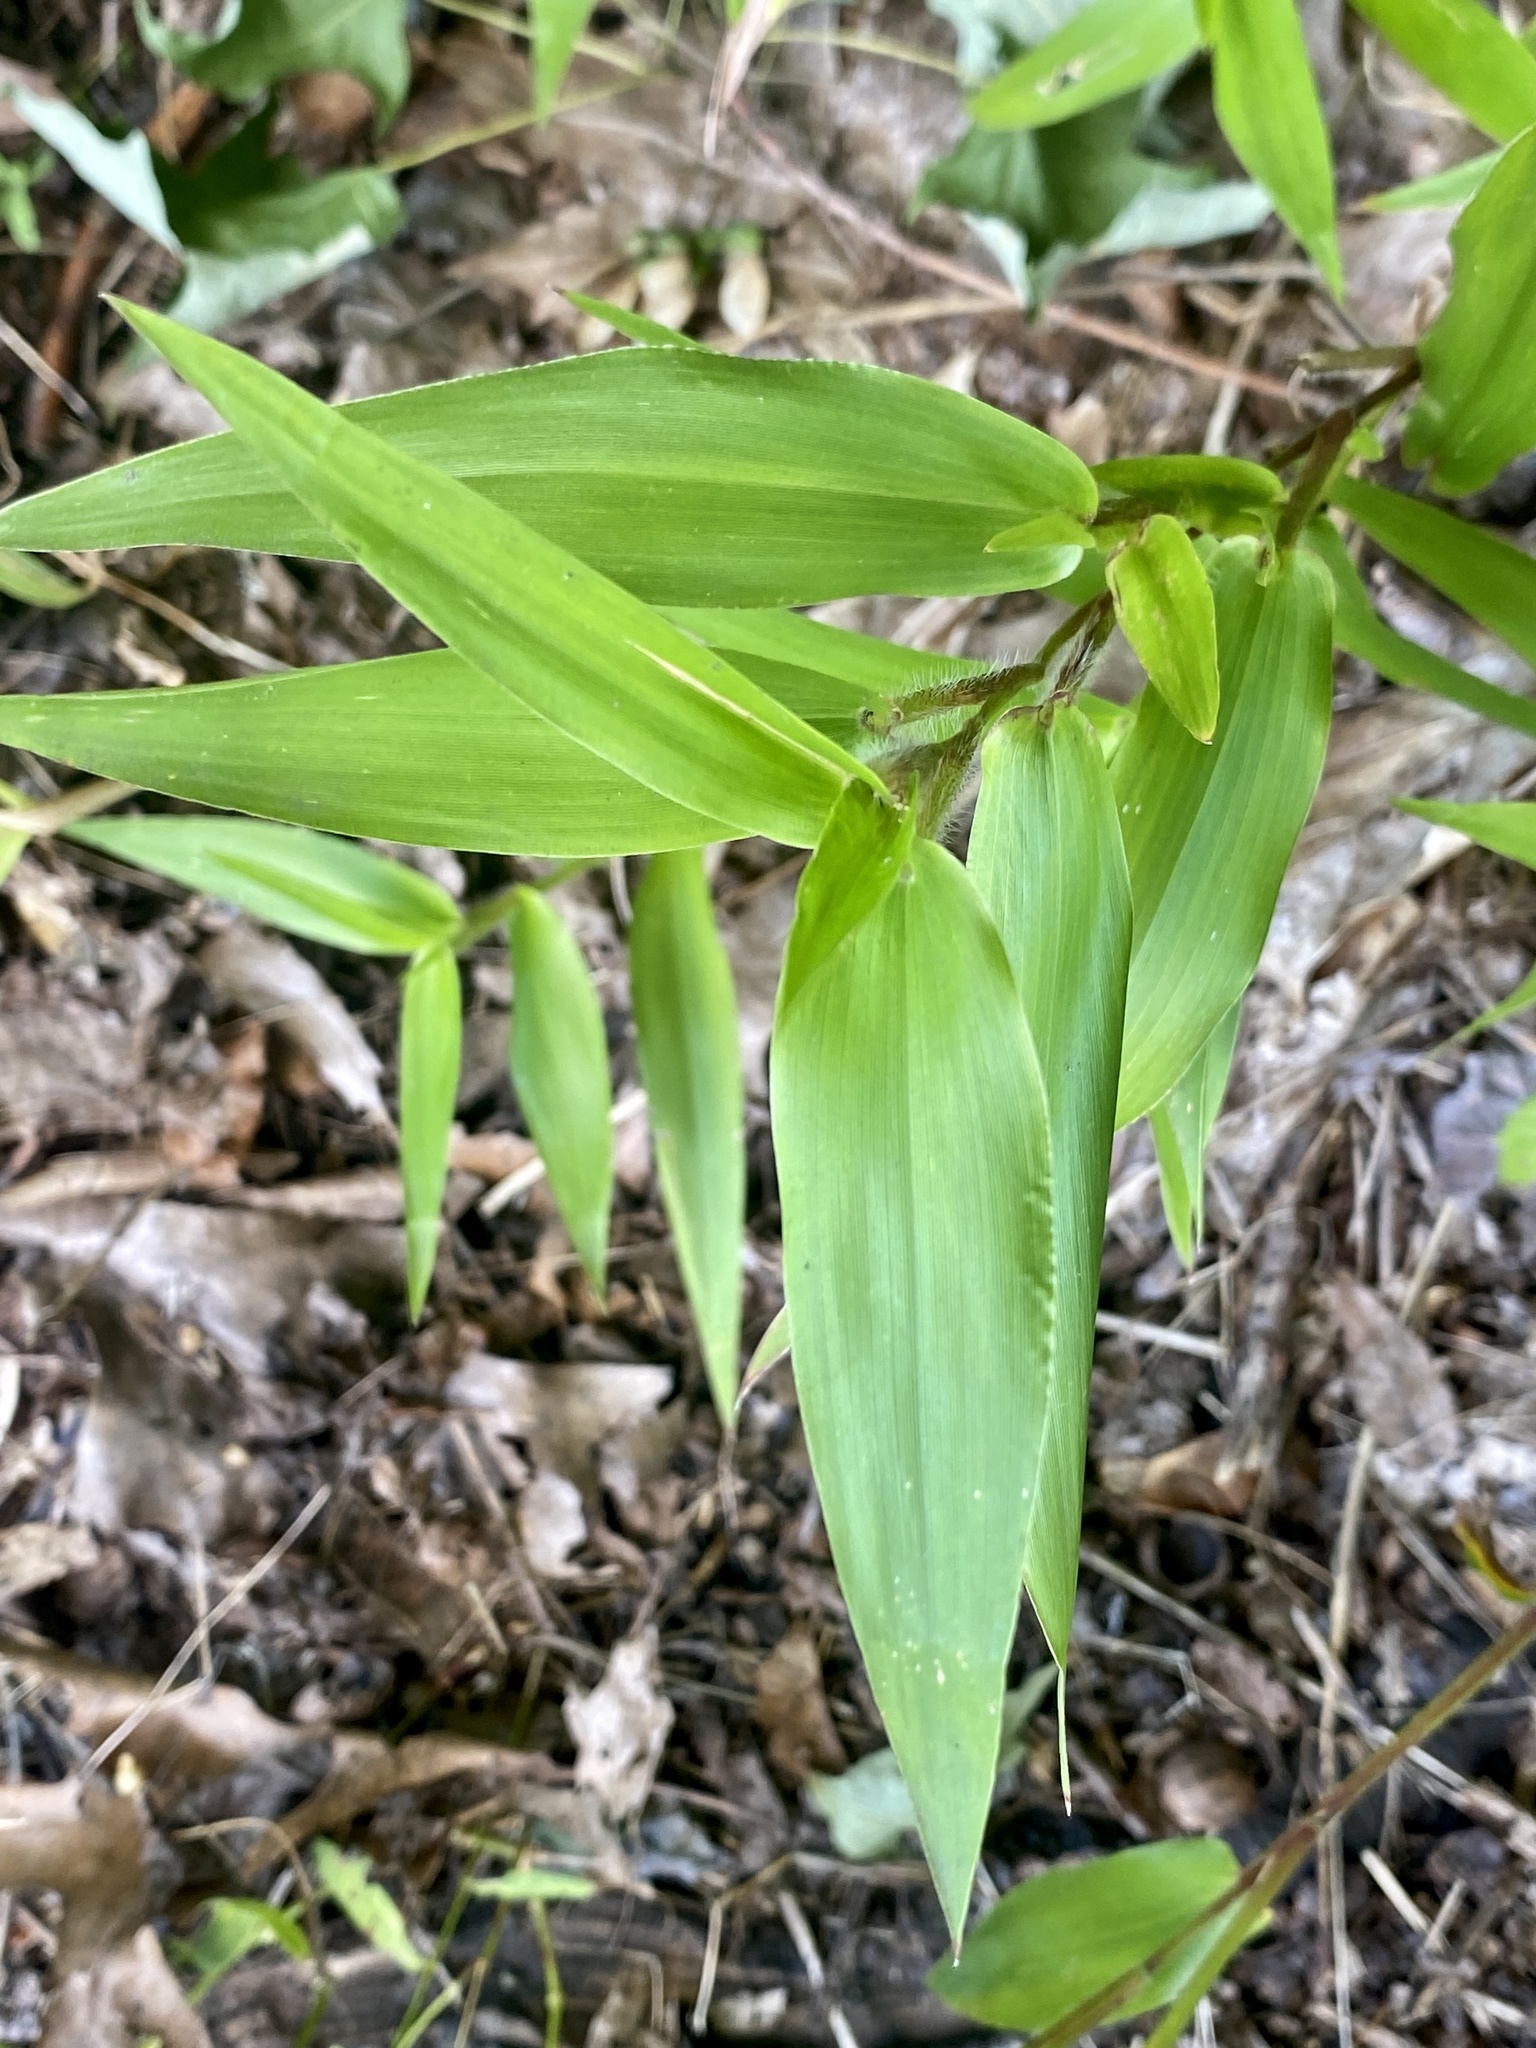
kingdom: Plantae
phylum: Tracheophyta
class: Liliopsida
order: Poales
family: Poaceae
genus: Dichanthelium
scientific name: Dichanthelium clandestinum
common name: Deer-tongue grass
